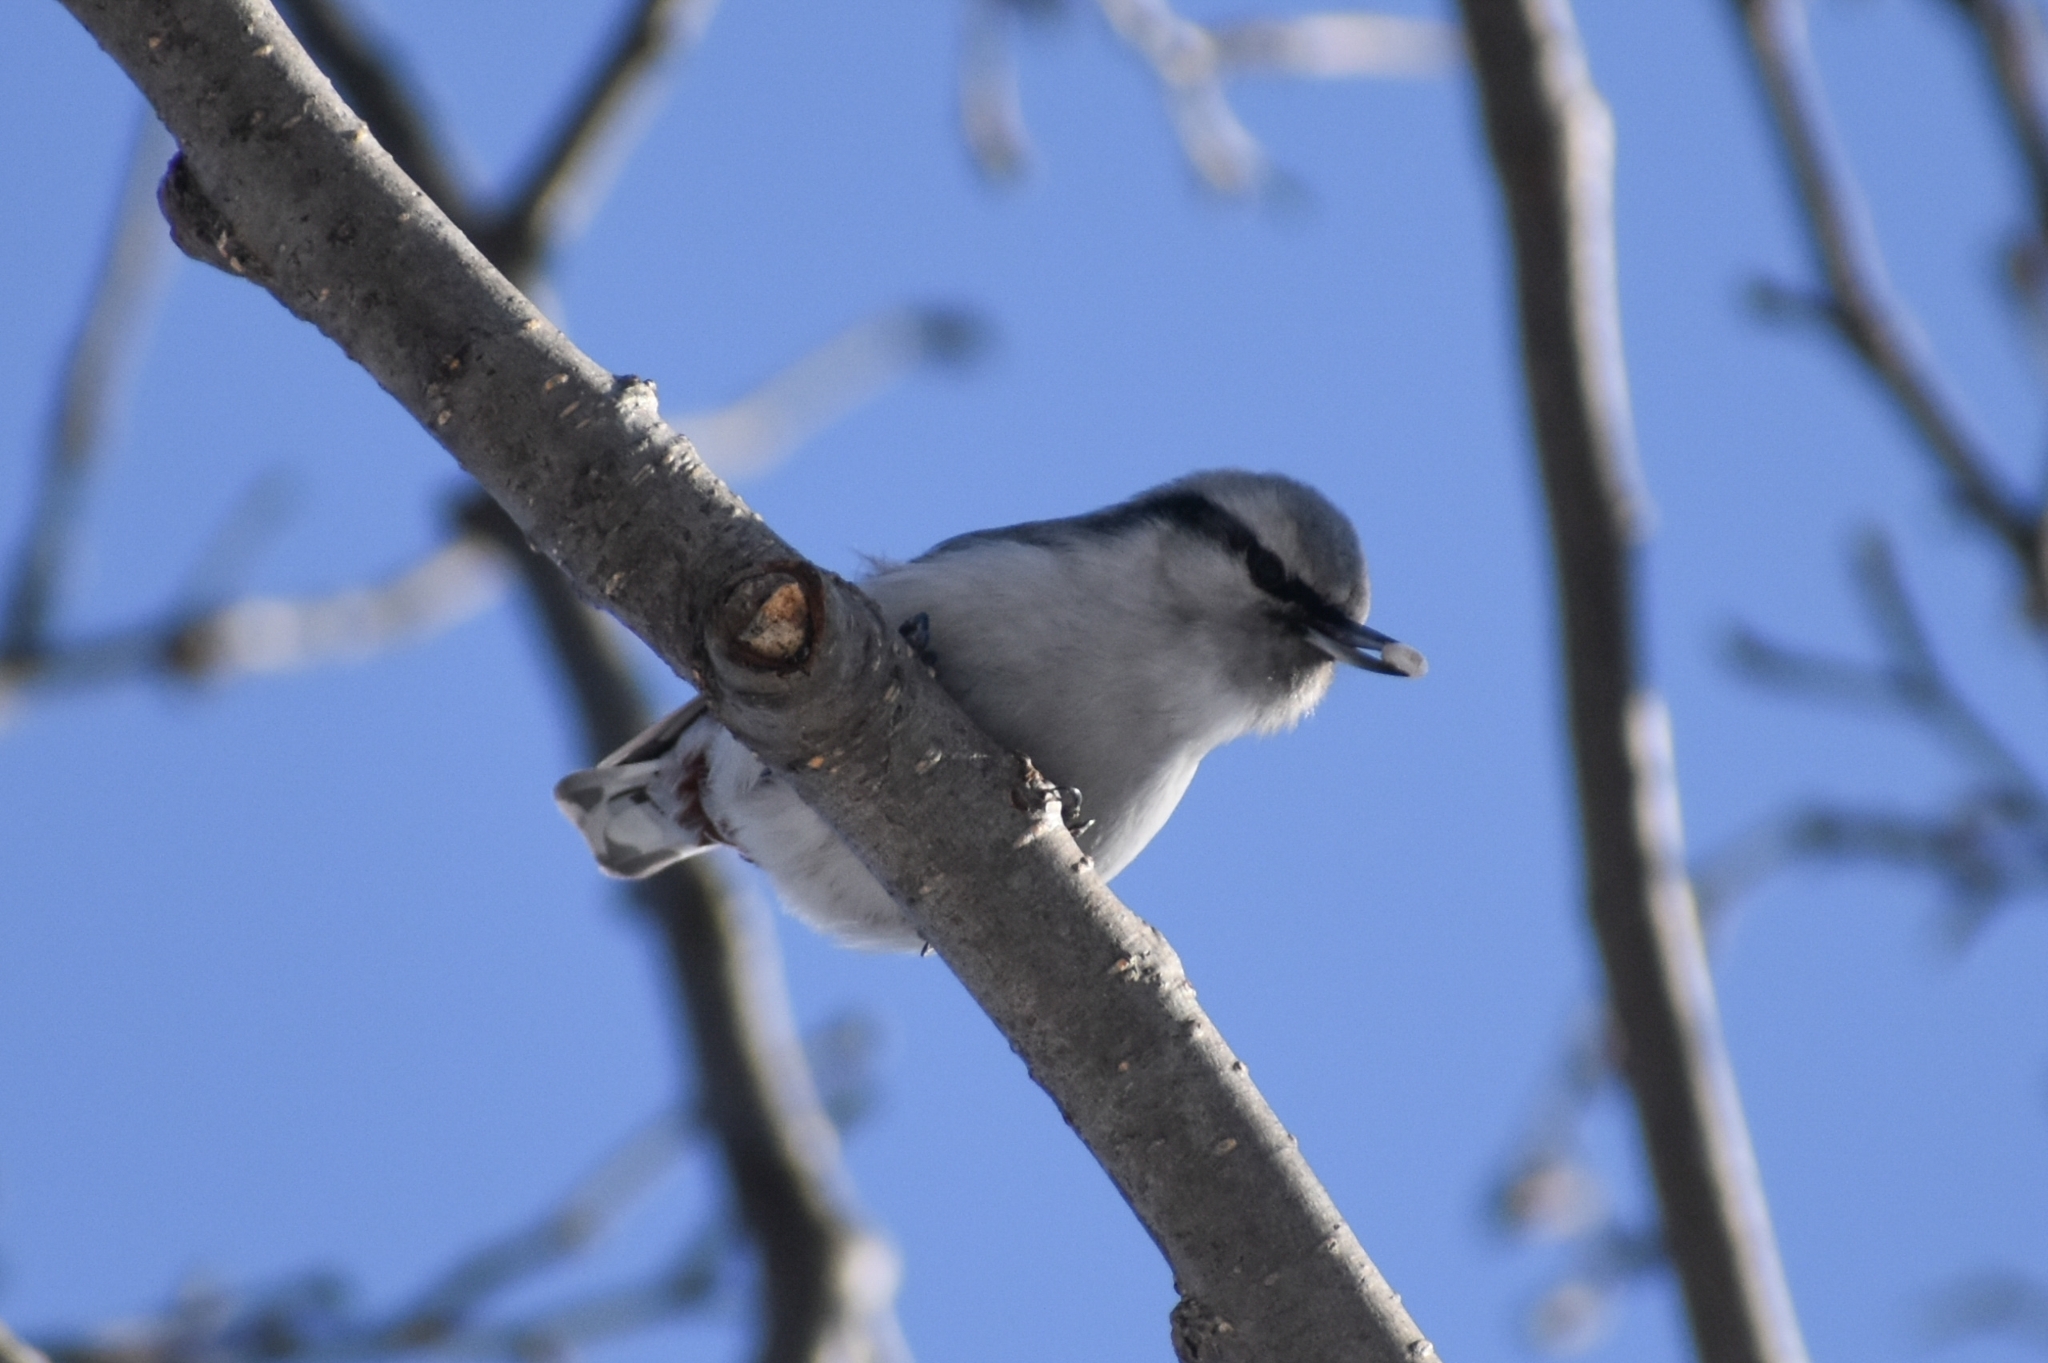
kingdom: Animalia
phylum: Chordata
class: Aves
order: Passeriformes
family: Sittidae
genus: Sitta
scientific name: Sitta europaea
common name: Eurasian nuthatch
